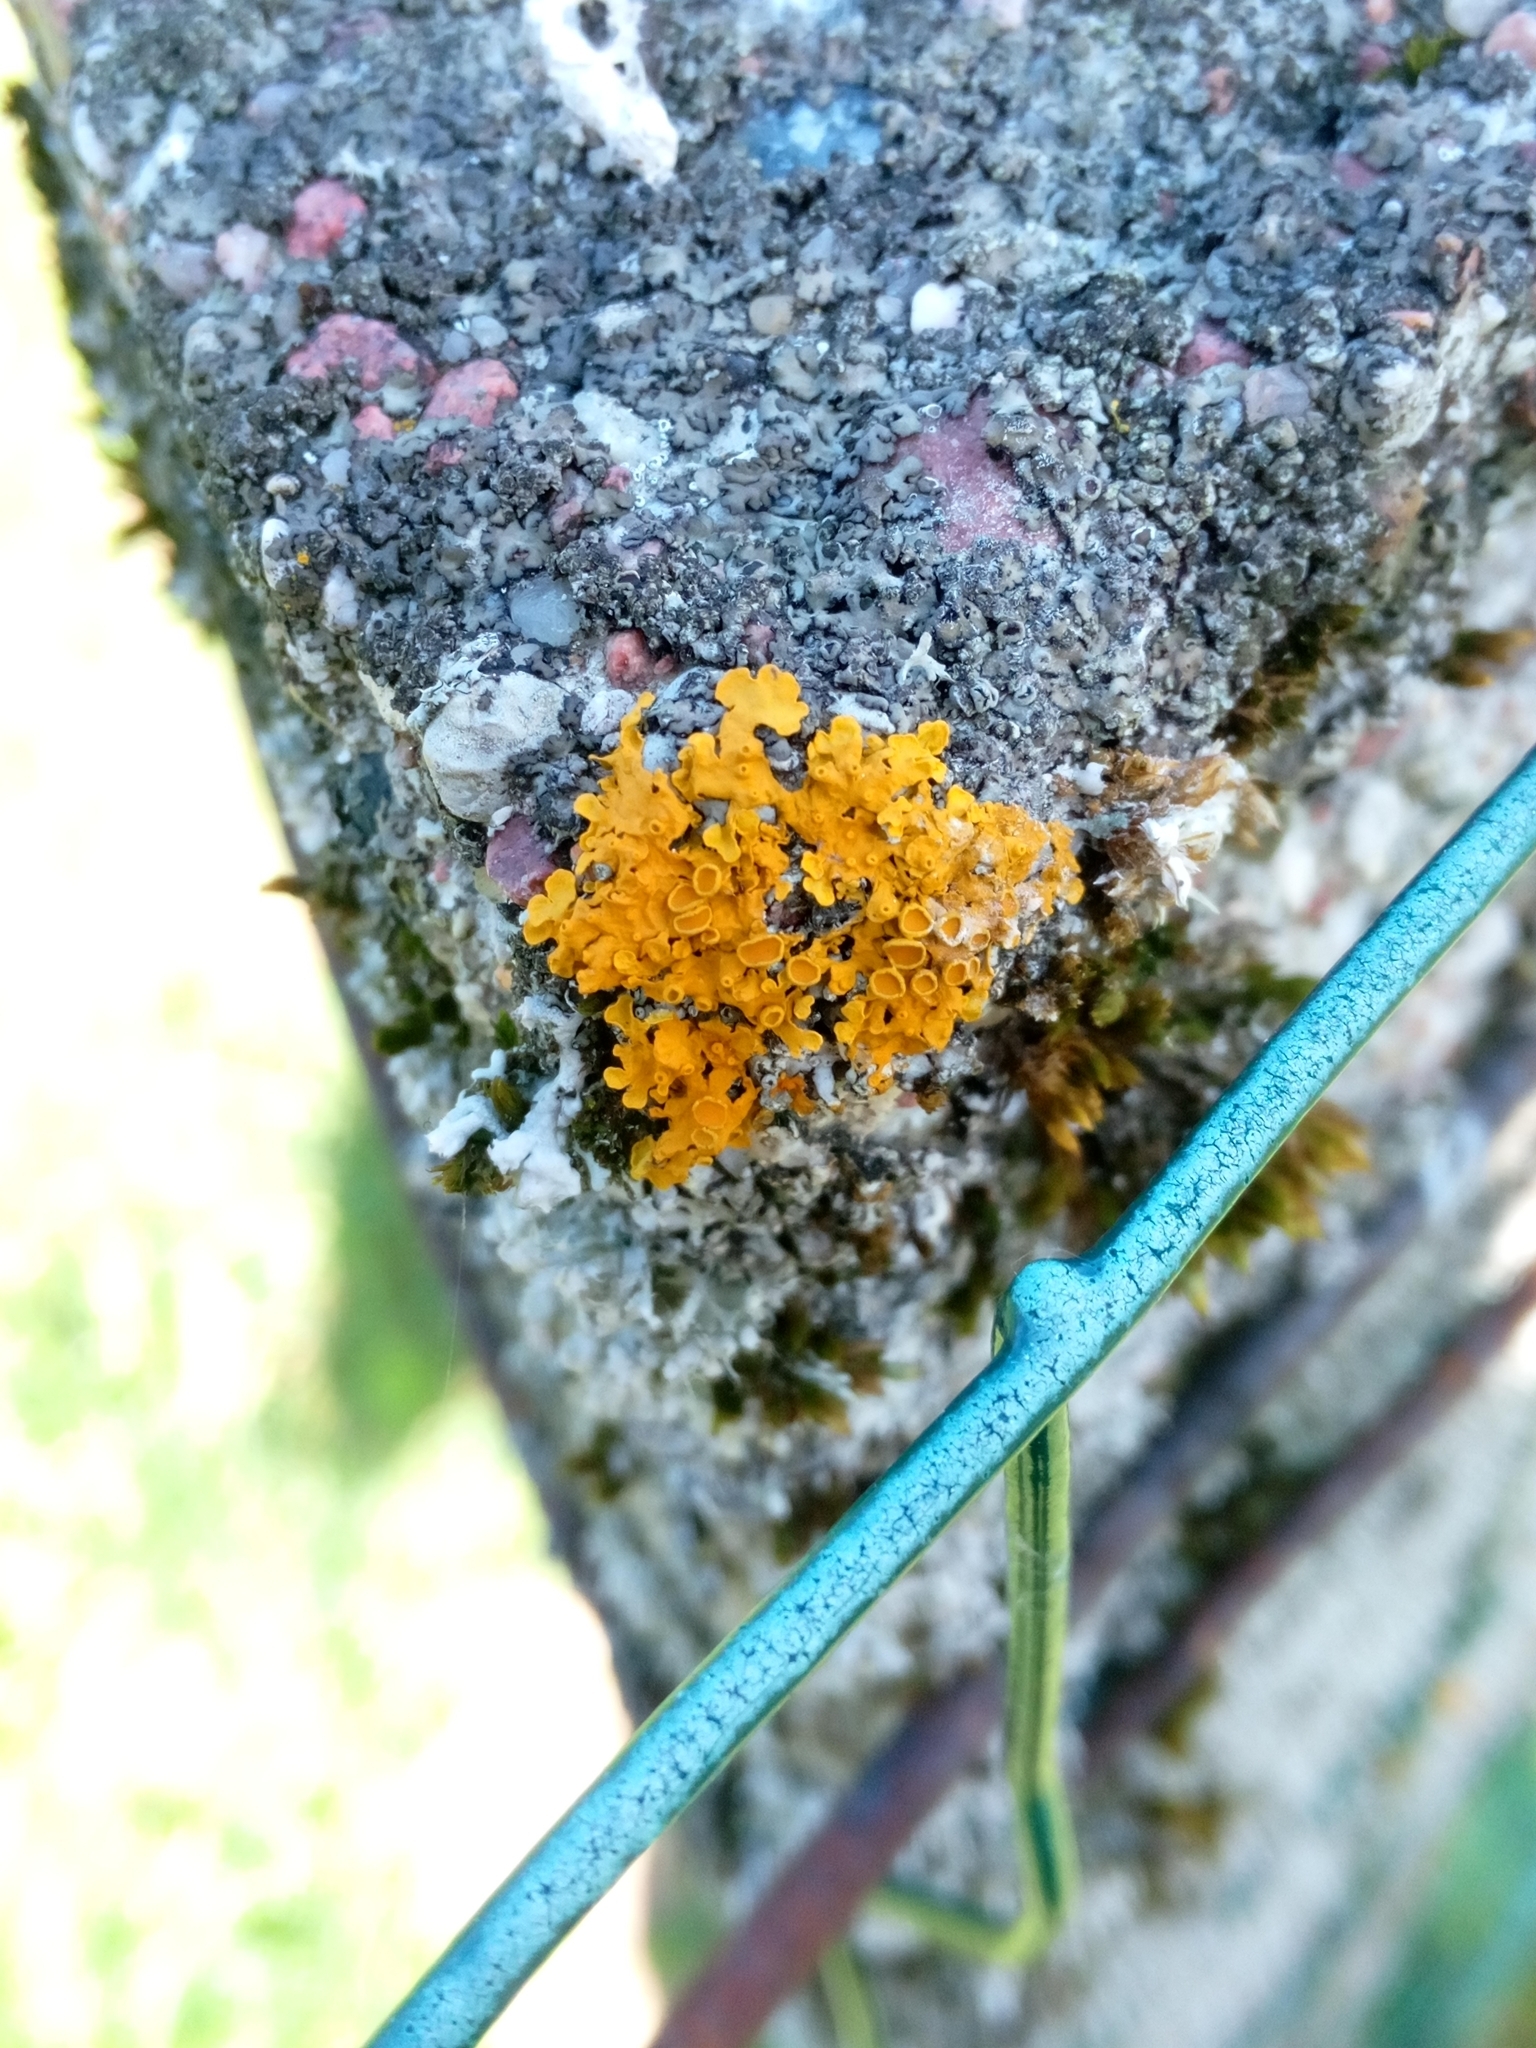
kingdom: Fungi
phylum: Ascomycota
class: Lecanoromycetes
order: Teloschistales
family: Teloschistaceae
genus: Xanthoria
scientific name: Xanthoria parietina
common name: Common orange lichen
